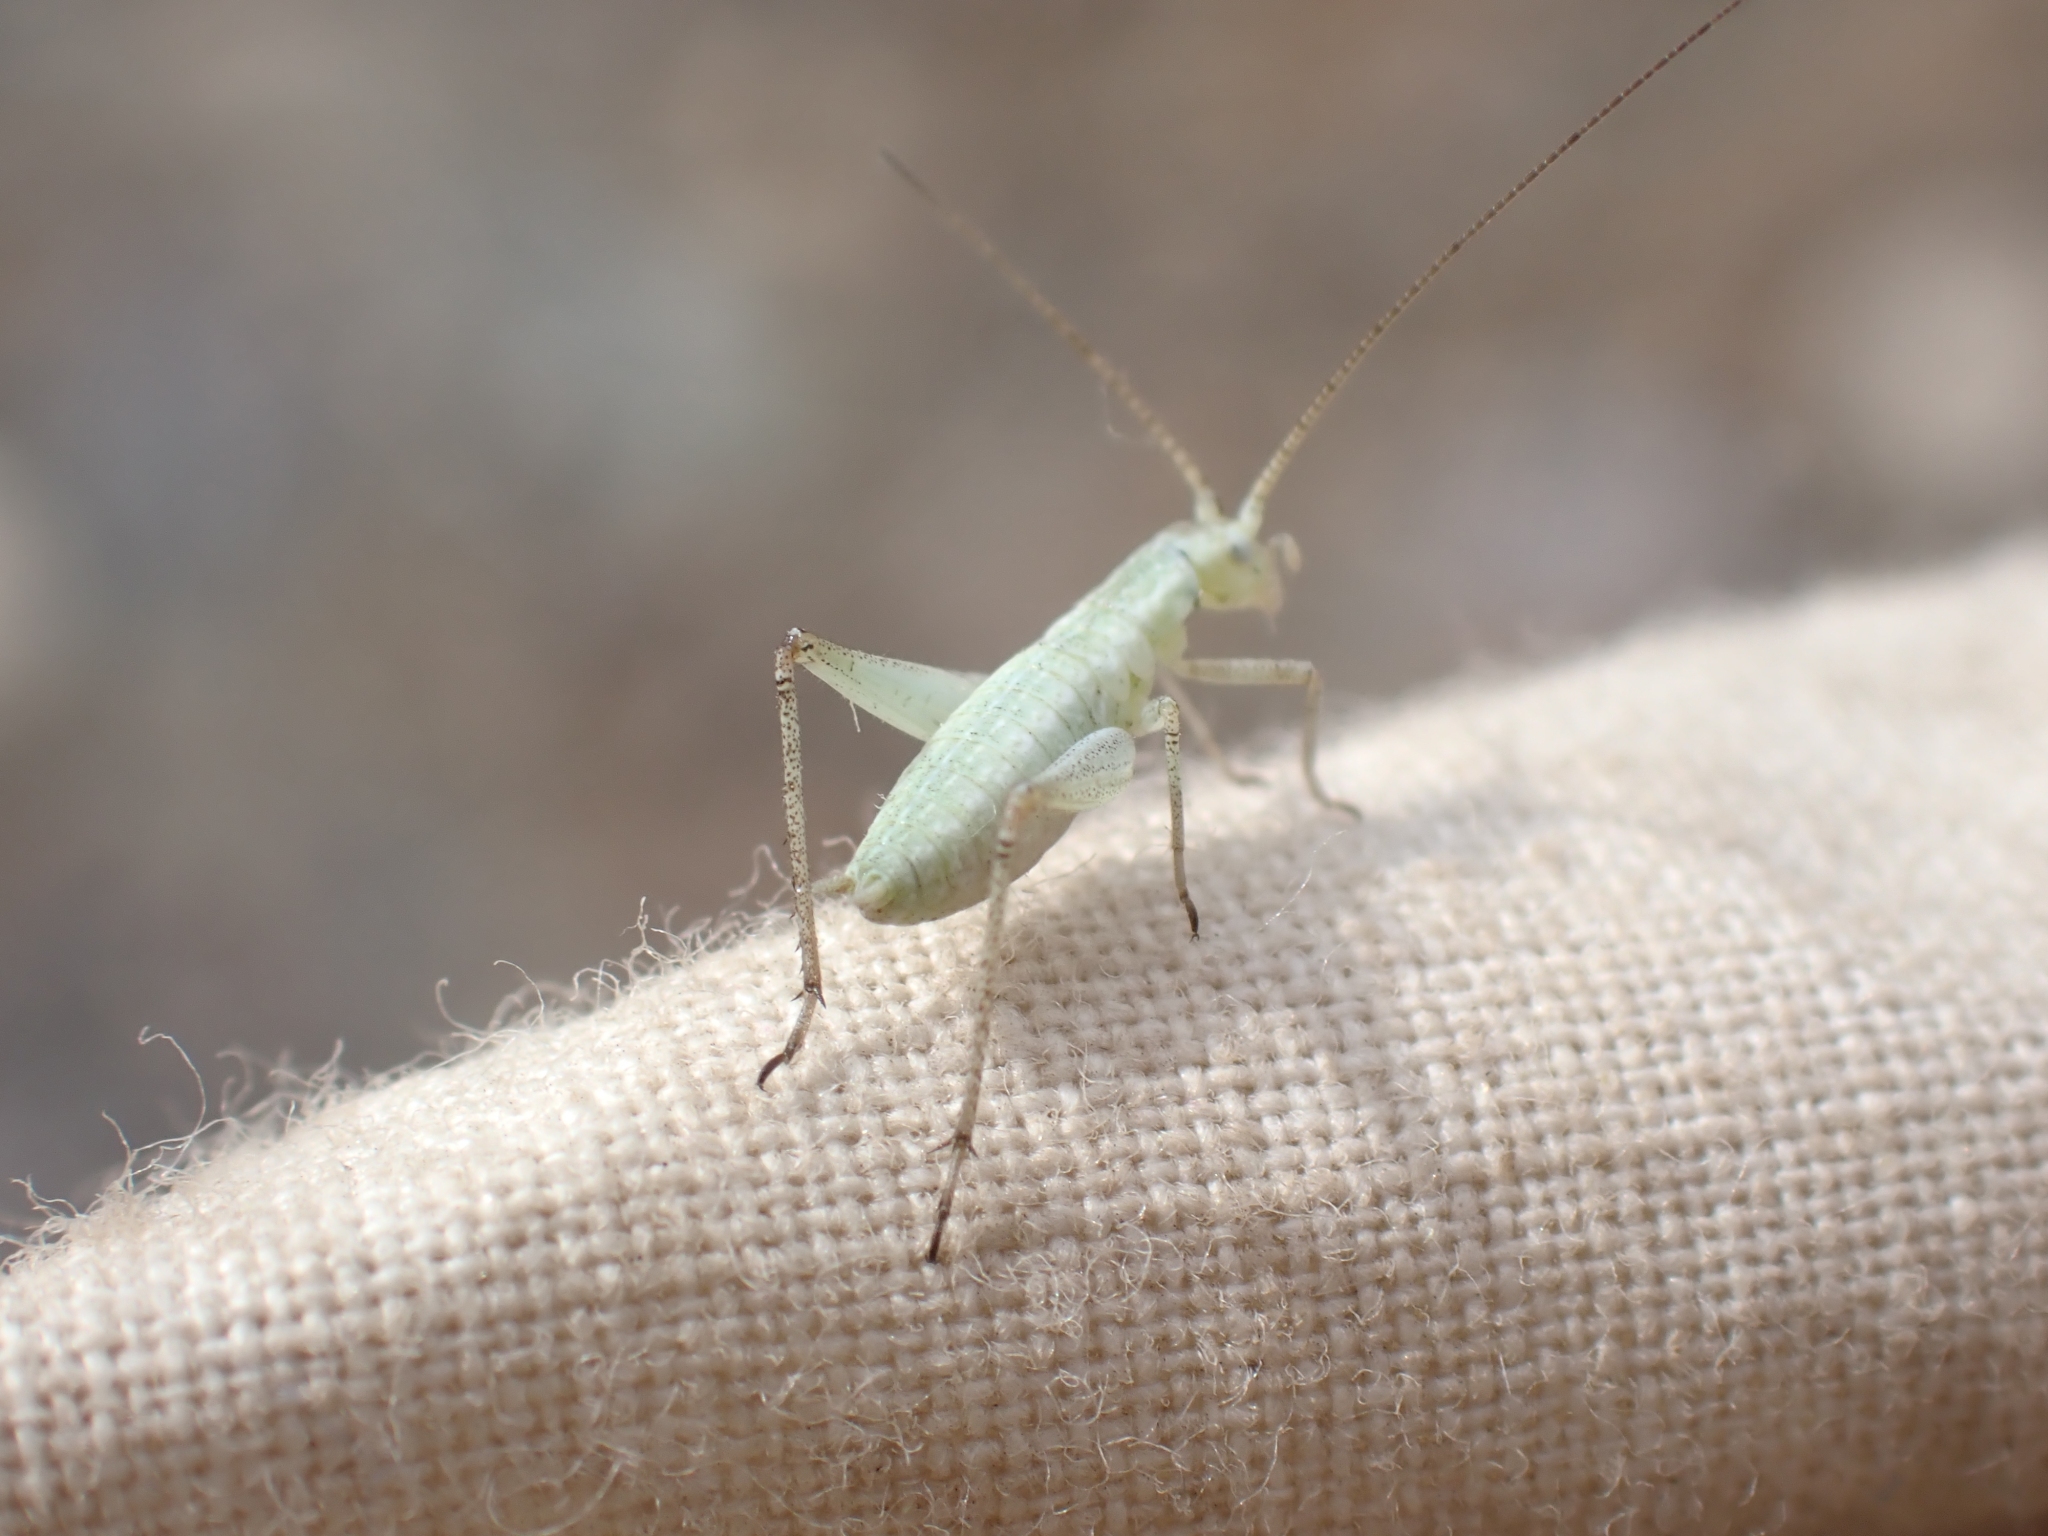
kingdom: Animalia
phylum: Arthropoda
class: Insecta
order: Orthoptera
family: Gryllidae
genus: Oecanthus
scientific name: Oecanthus salvii
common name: Sage tree cricket
